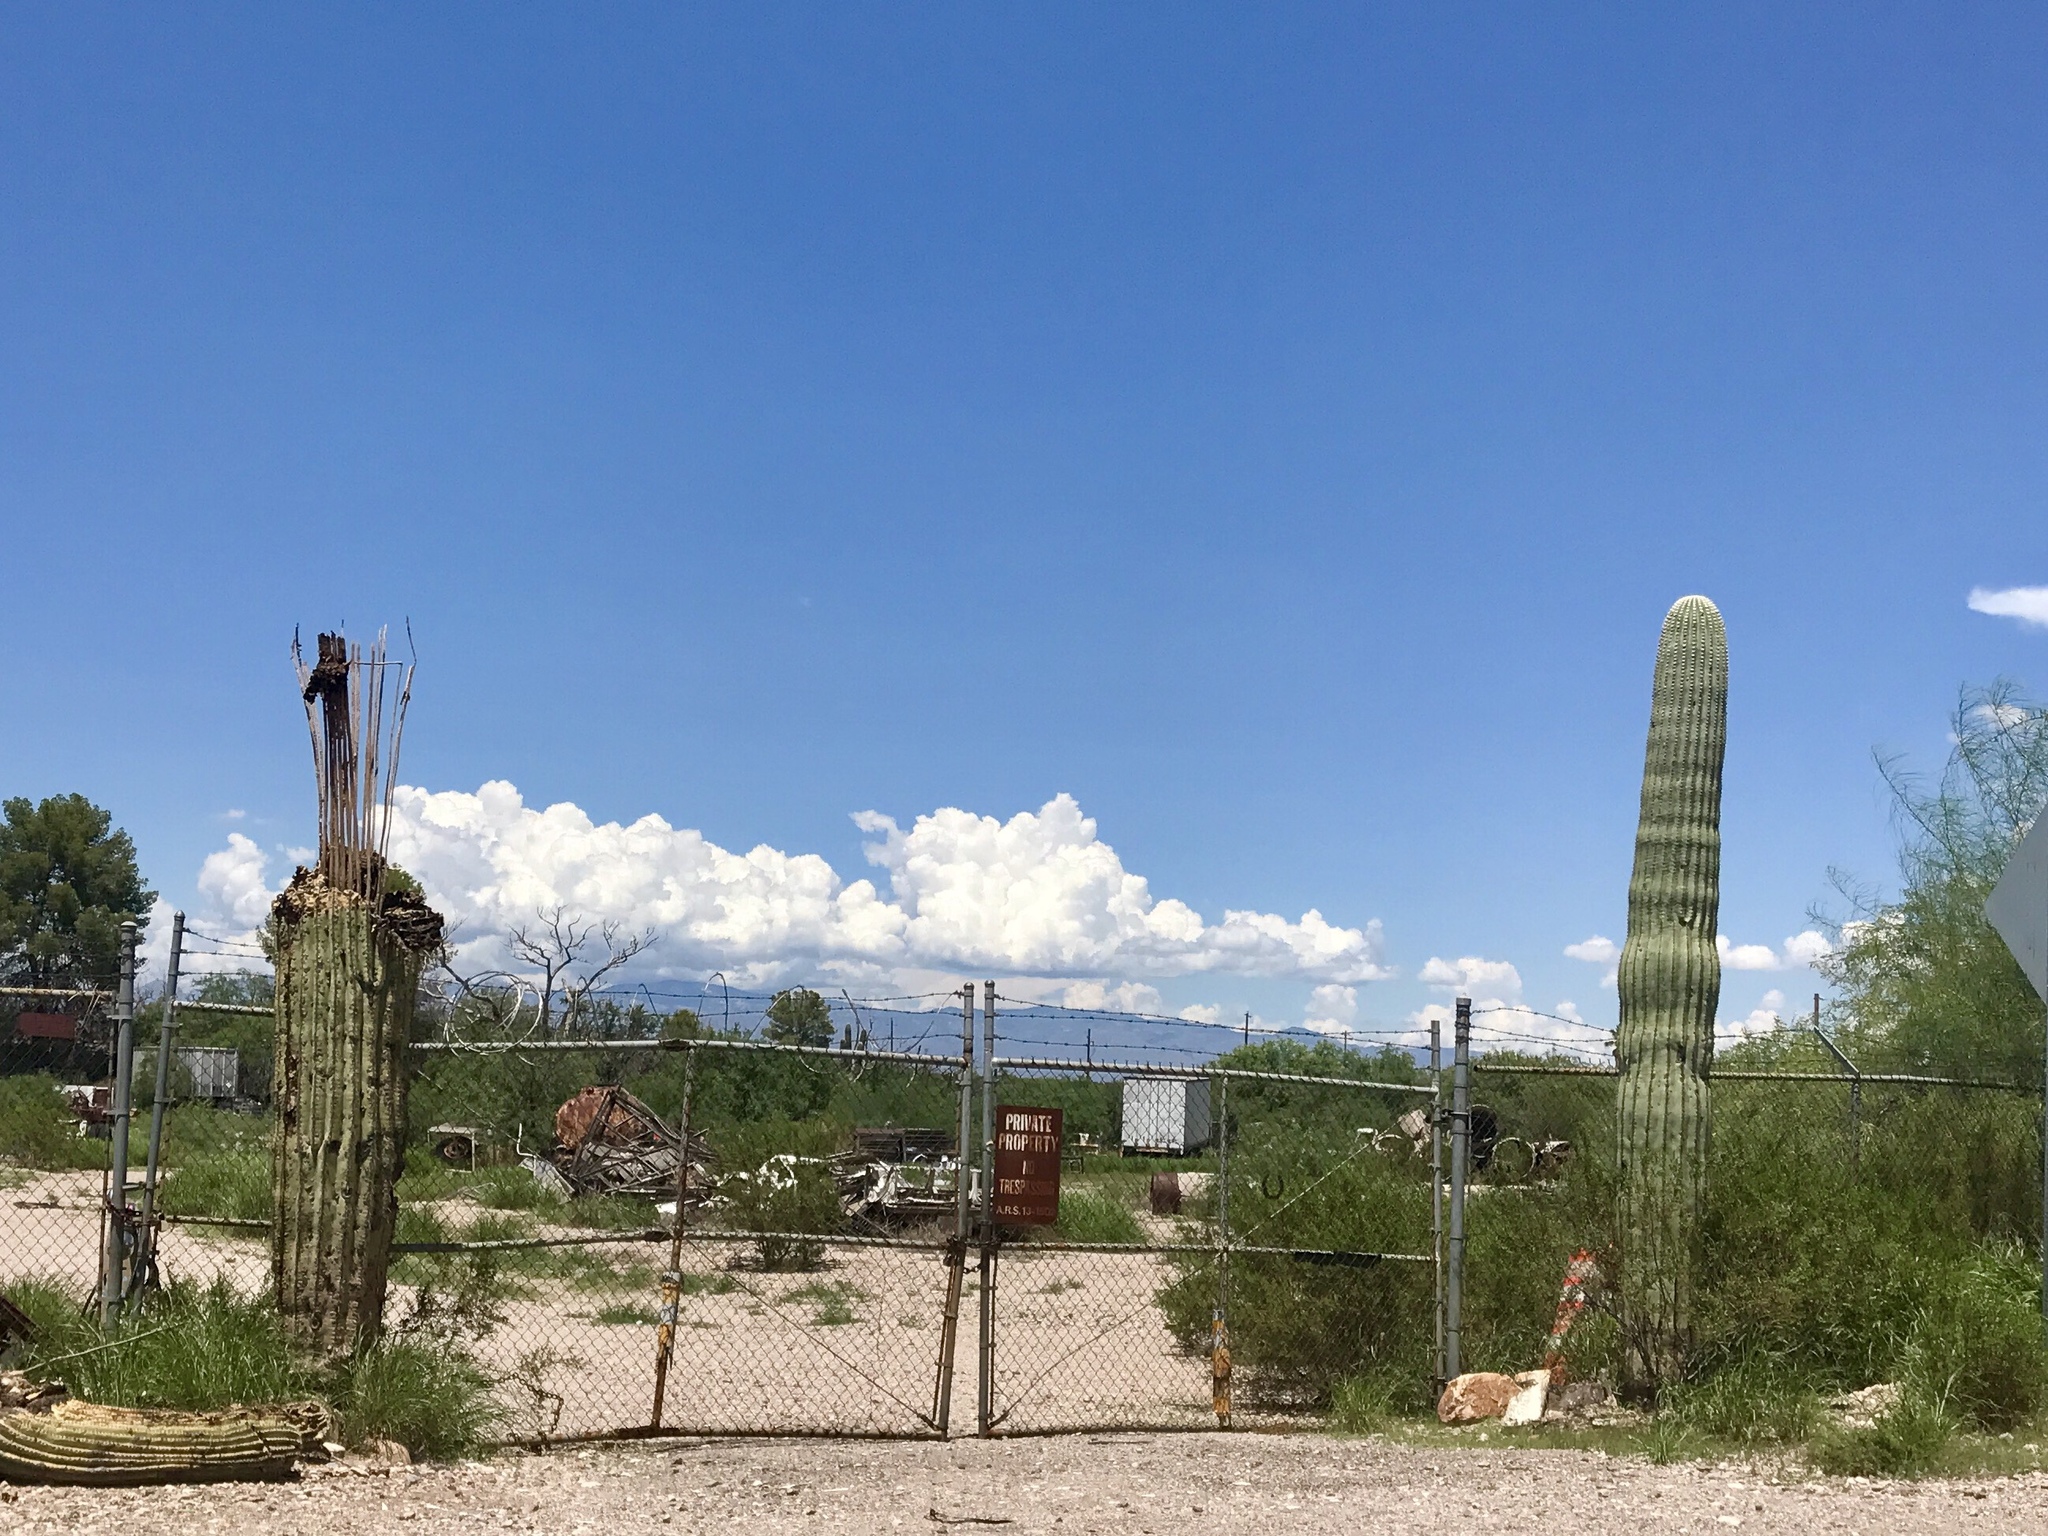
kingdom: Plantae
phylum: Tracheophyta
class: Magnoliopsida
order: Caryophyllales
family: Cactaceae
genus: Carnegiea
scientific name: Carnegiea gigantea
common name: Saguaro
